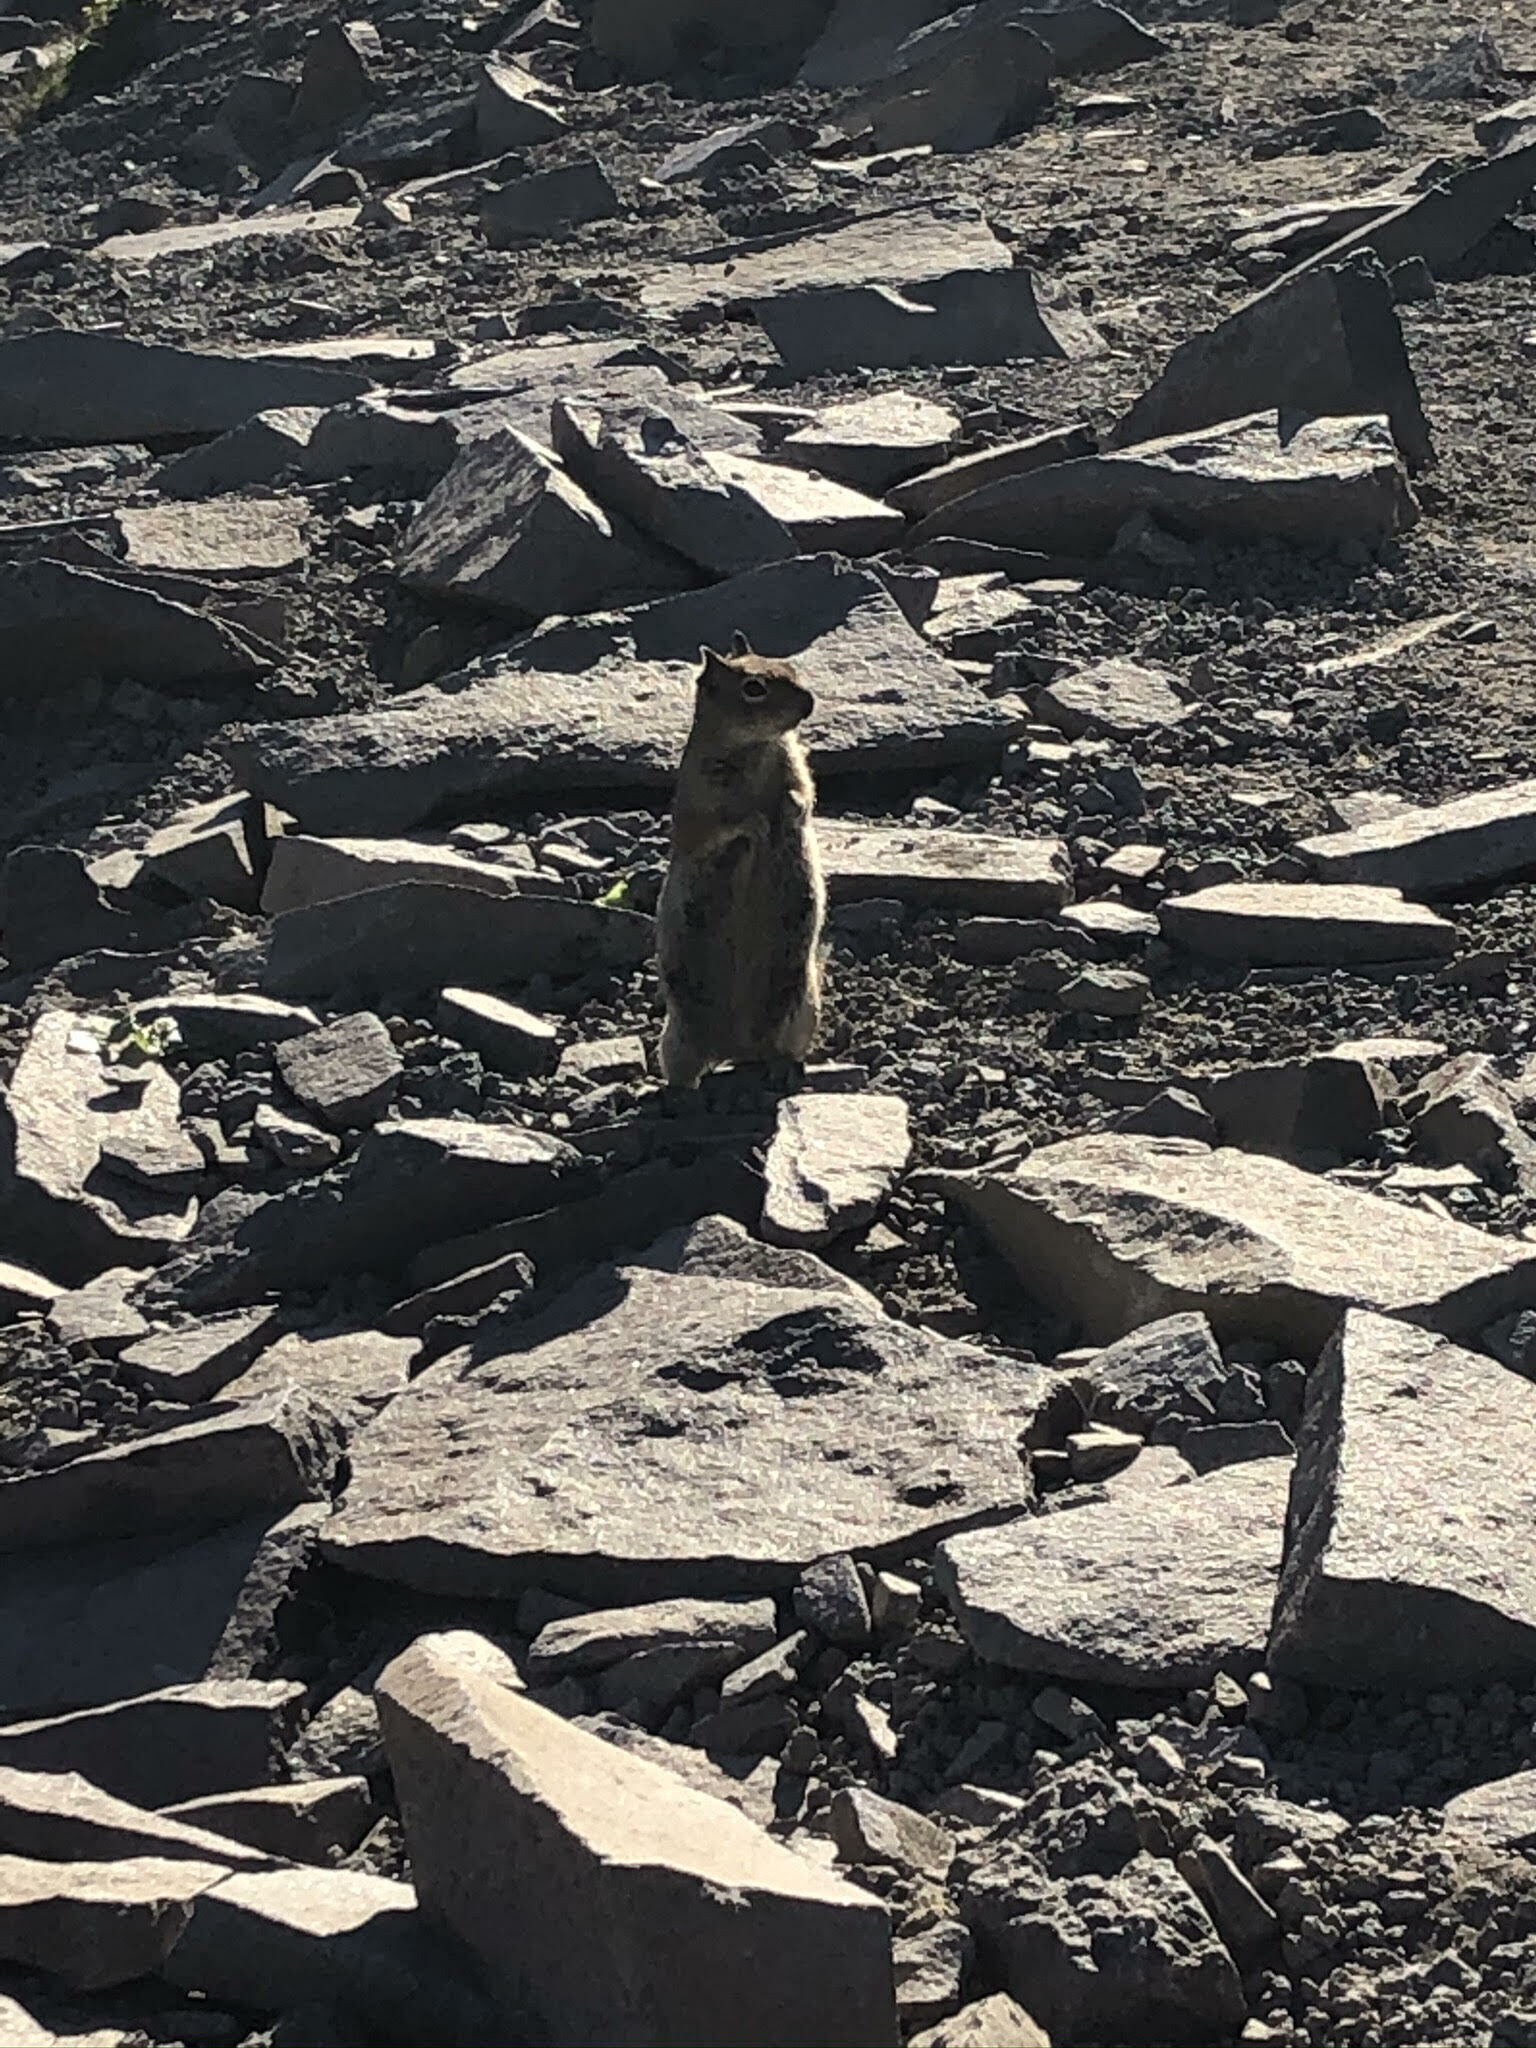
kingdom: Animalia
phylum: Chordata
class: Mammalia
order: Rodentia
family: Sciuridae
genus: Callospermophilus
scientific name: Callospermophilus saturatus
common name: Cascade golden-mantled ground squirrel
